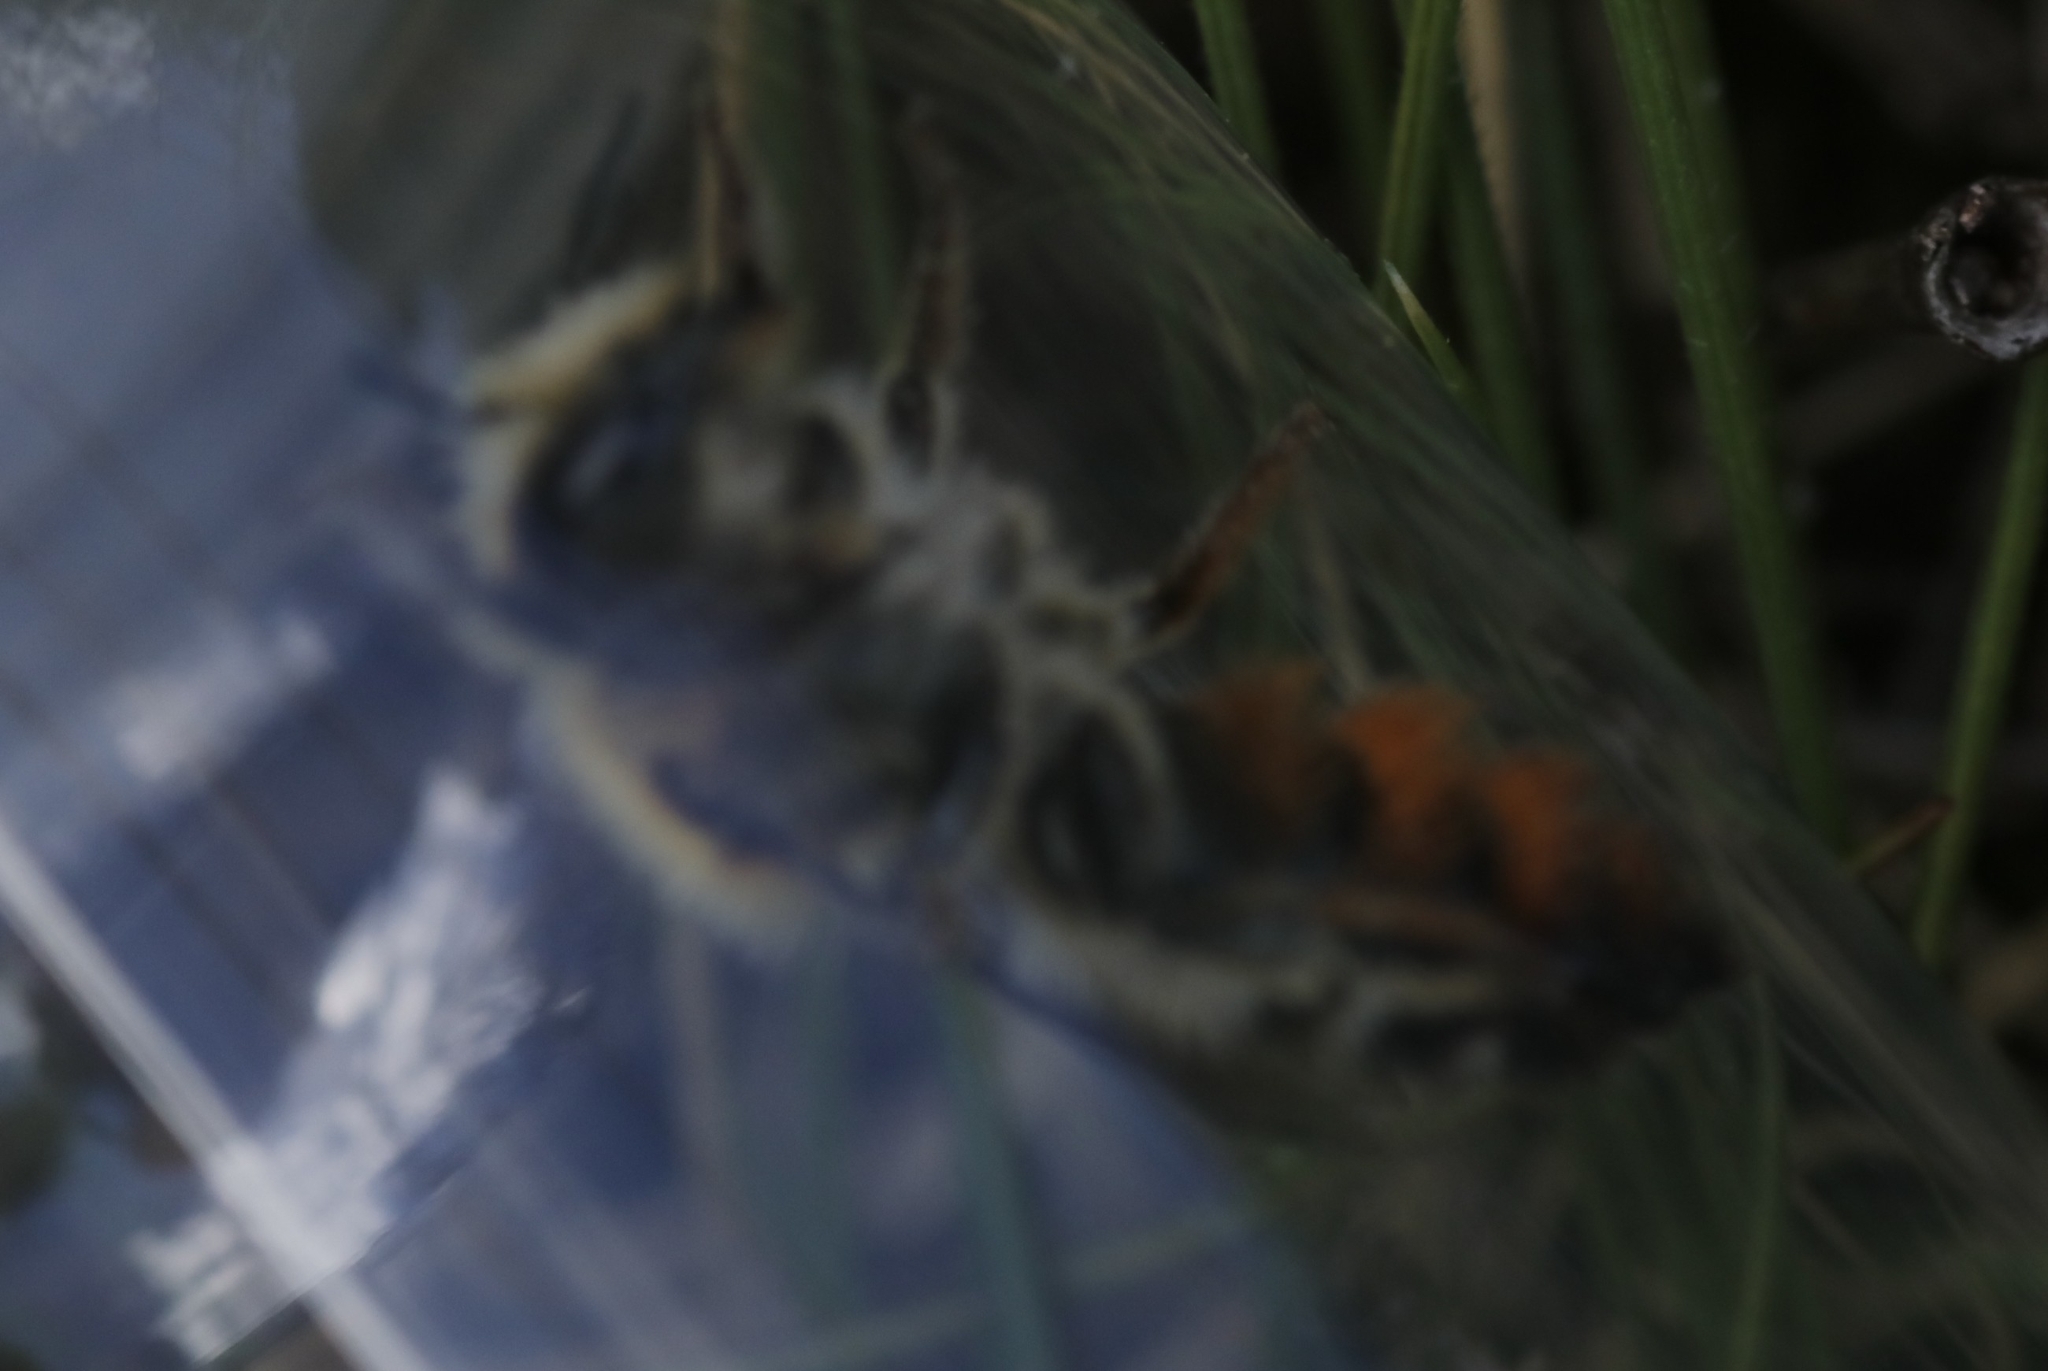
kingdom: Animalia
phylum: Arthropoda
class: Insecta
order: Hymenoptera
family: Megachilidae
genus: Hoplitis
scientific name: Hoplitis villosa
